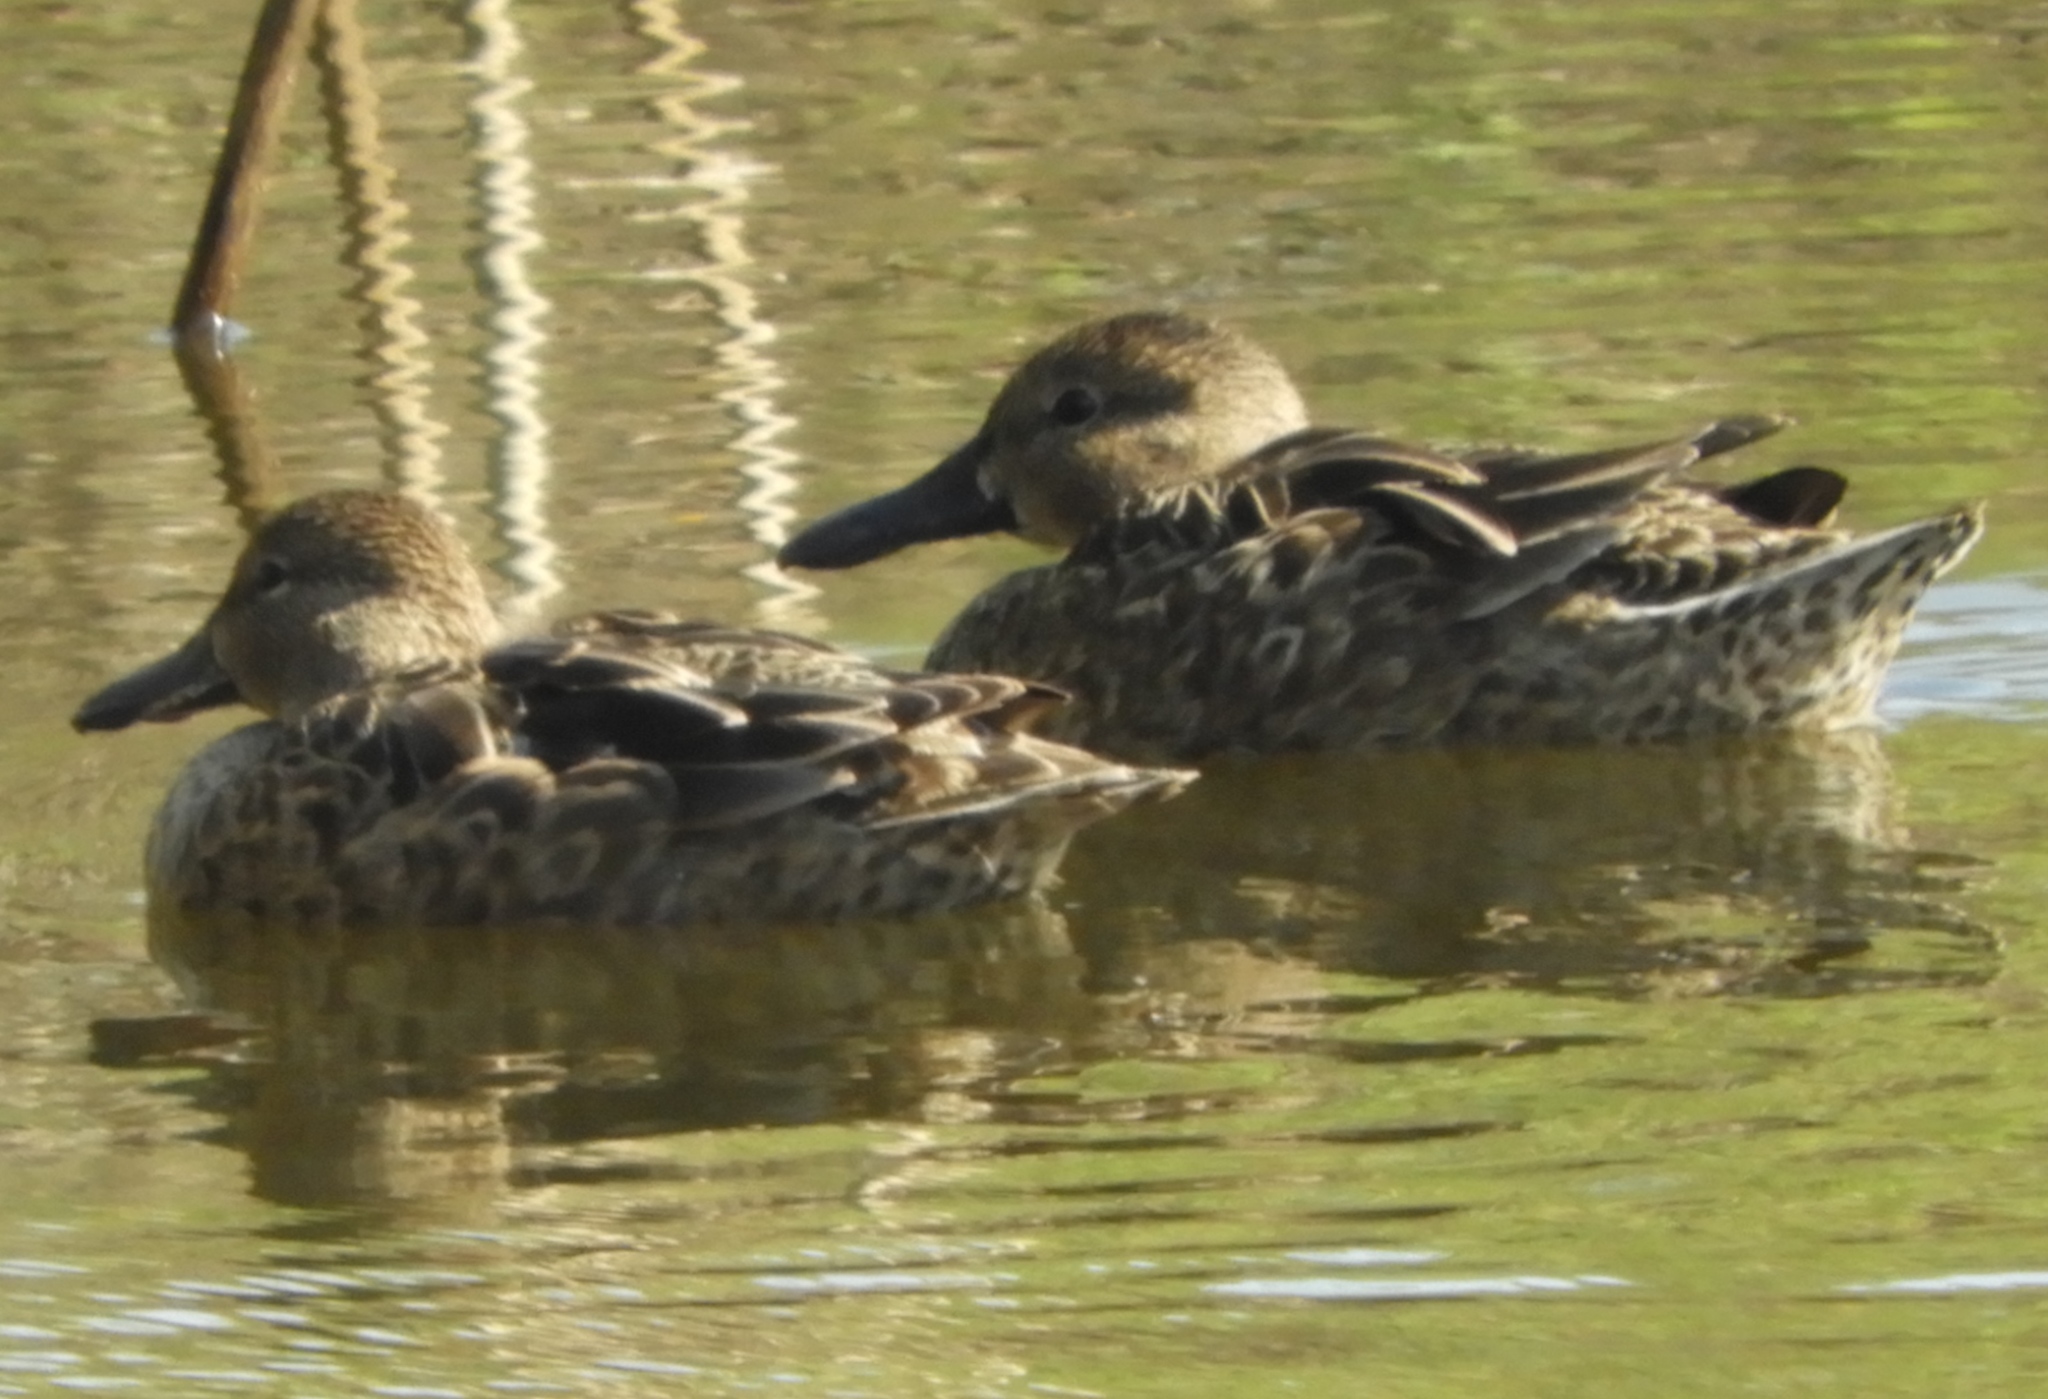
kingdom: Animalia
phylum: Chordata
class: Aves
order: Anseriformes
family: Anatidae
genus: Spatula
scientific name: Spatula
